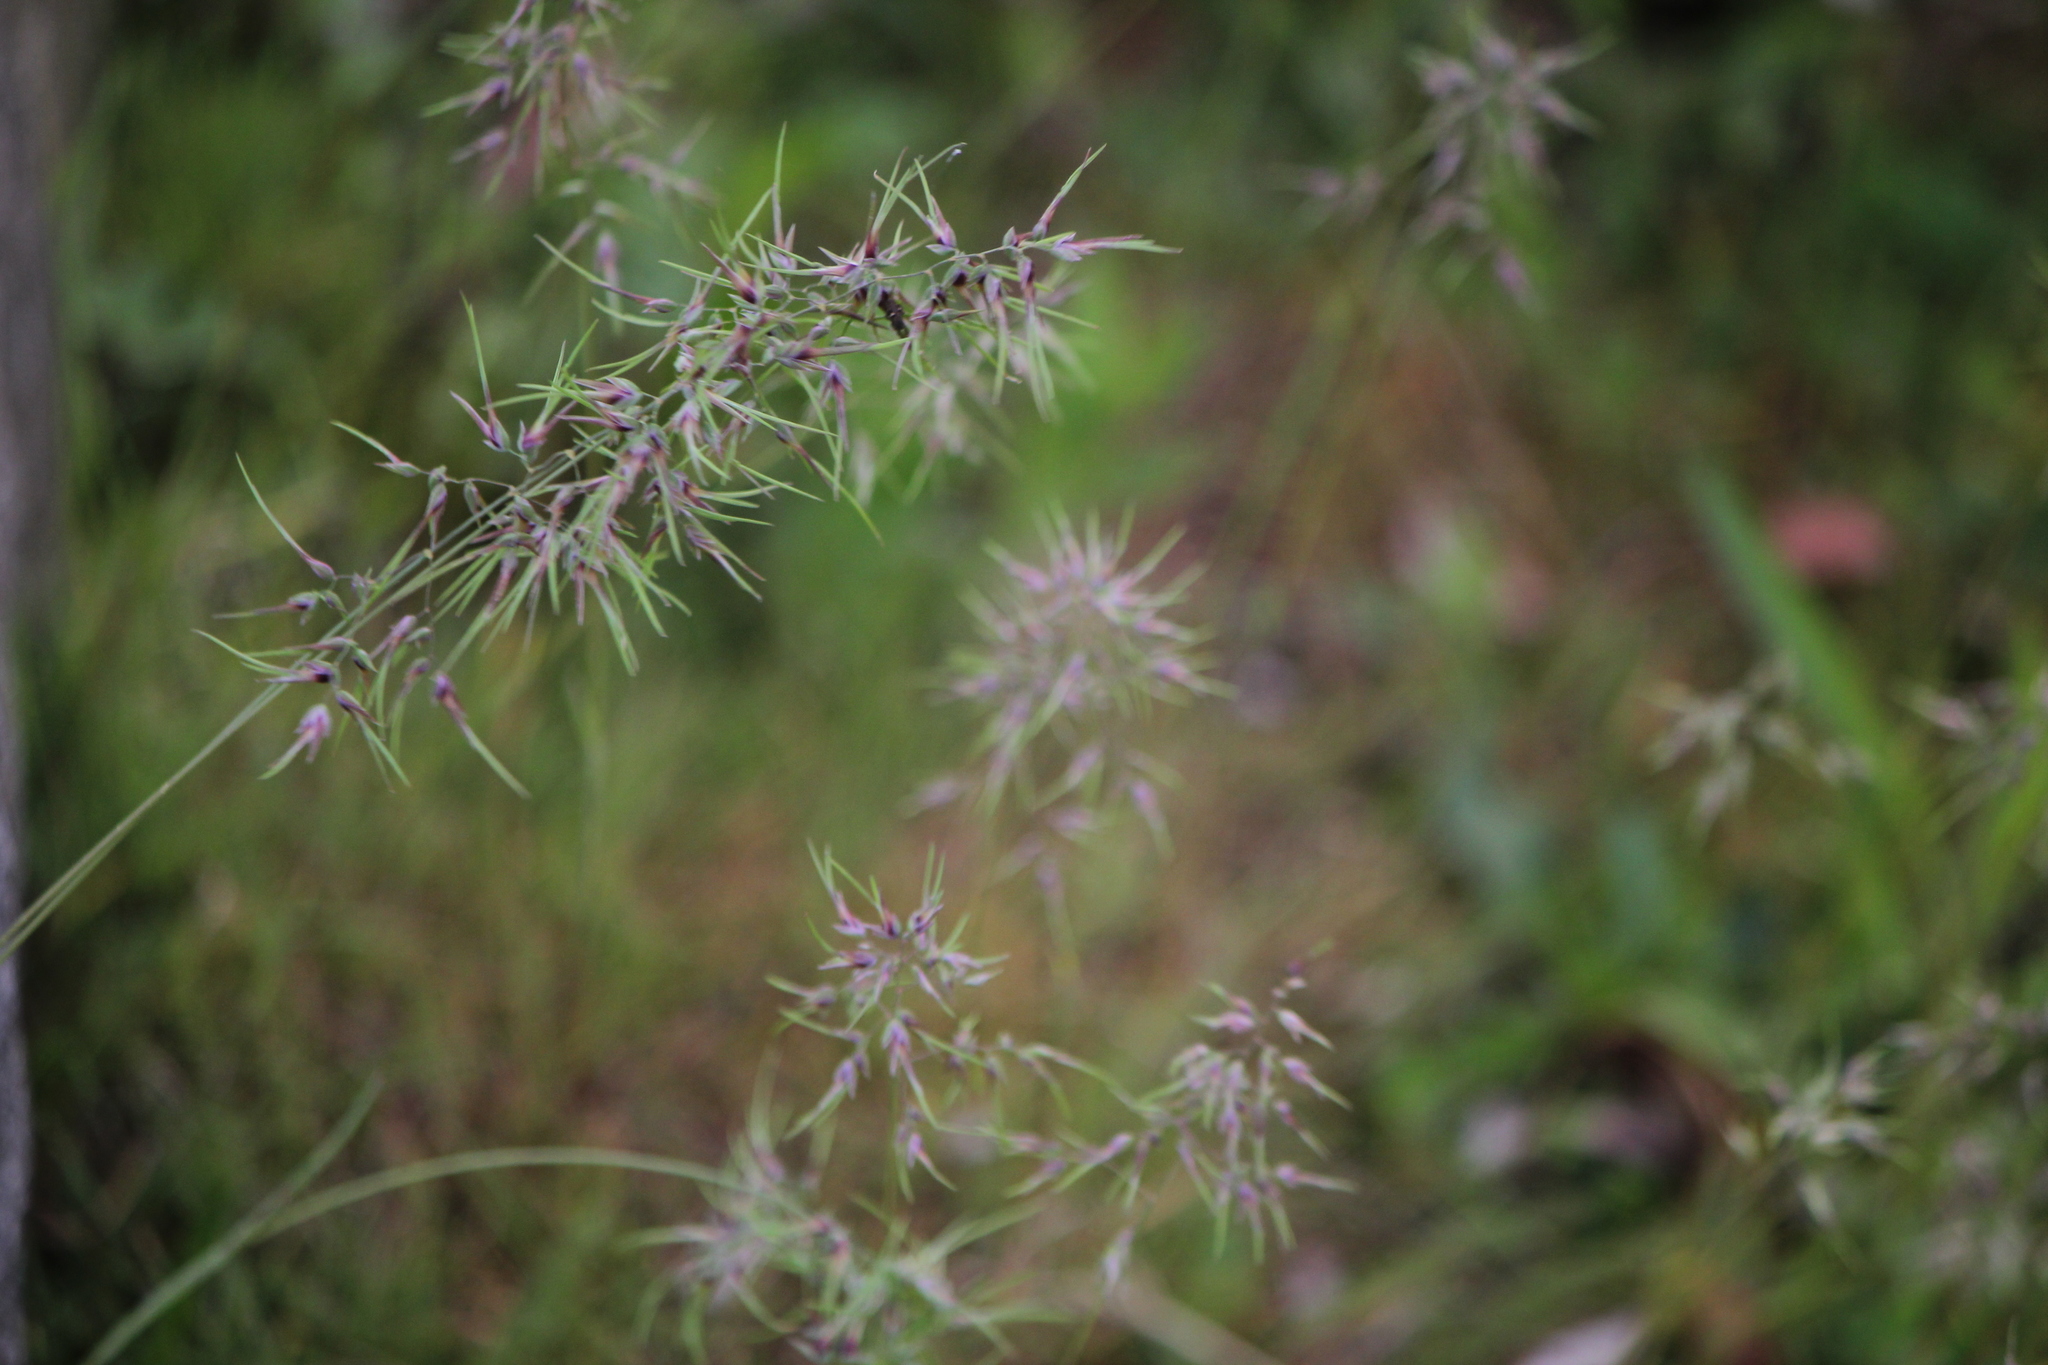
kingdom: Plantae
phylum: Tracheophyta
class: Liliopsida
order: Poales
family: Poaceae
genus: Poa
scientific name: Poa bulbosa
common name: Bulbous bluegrass
